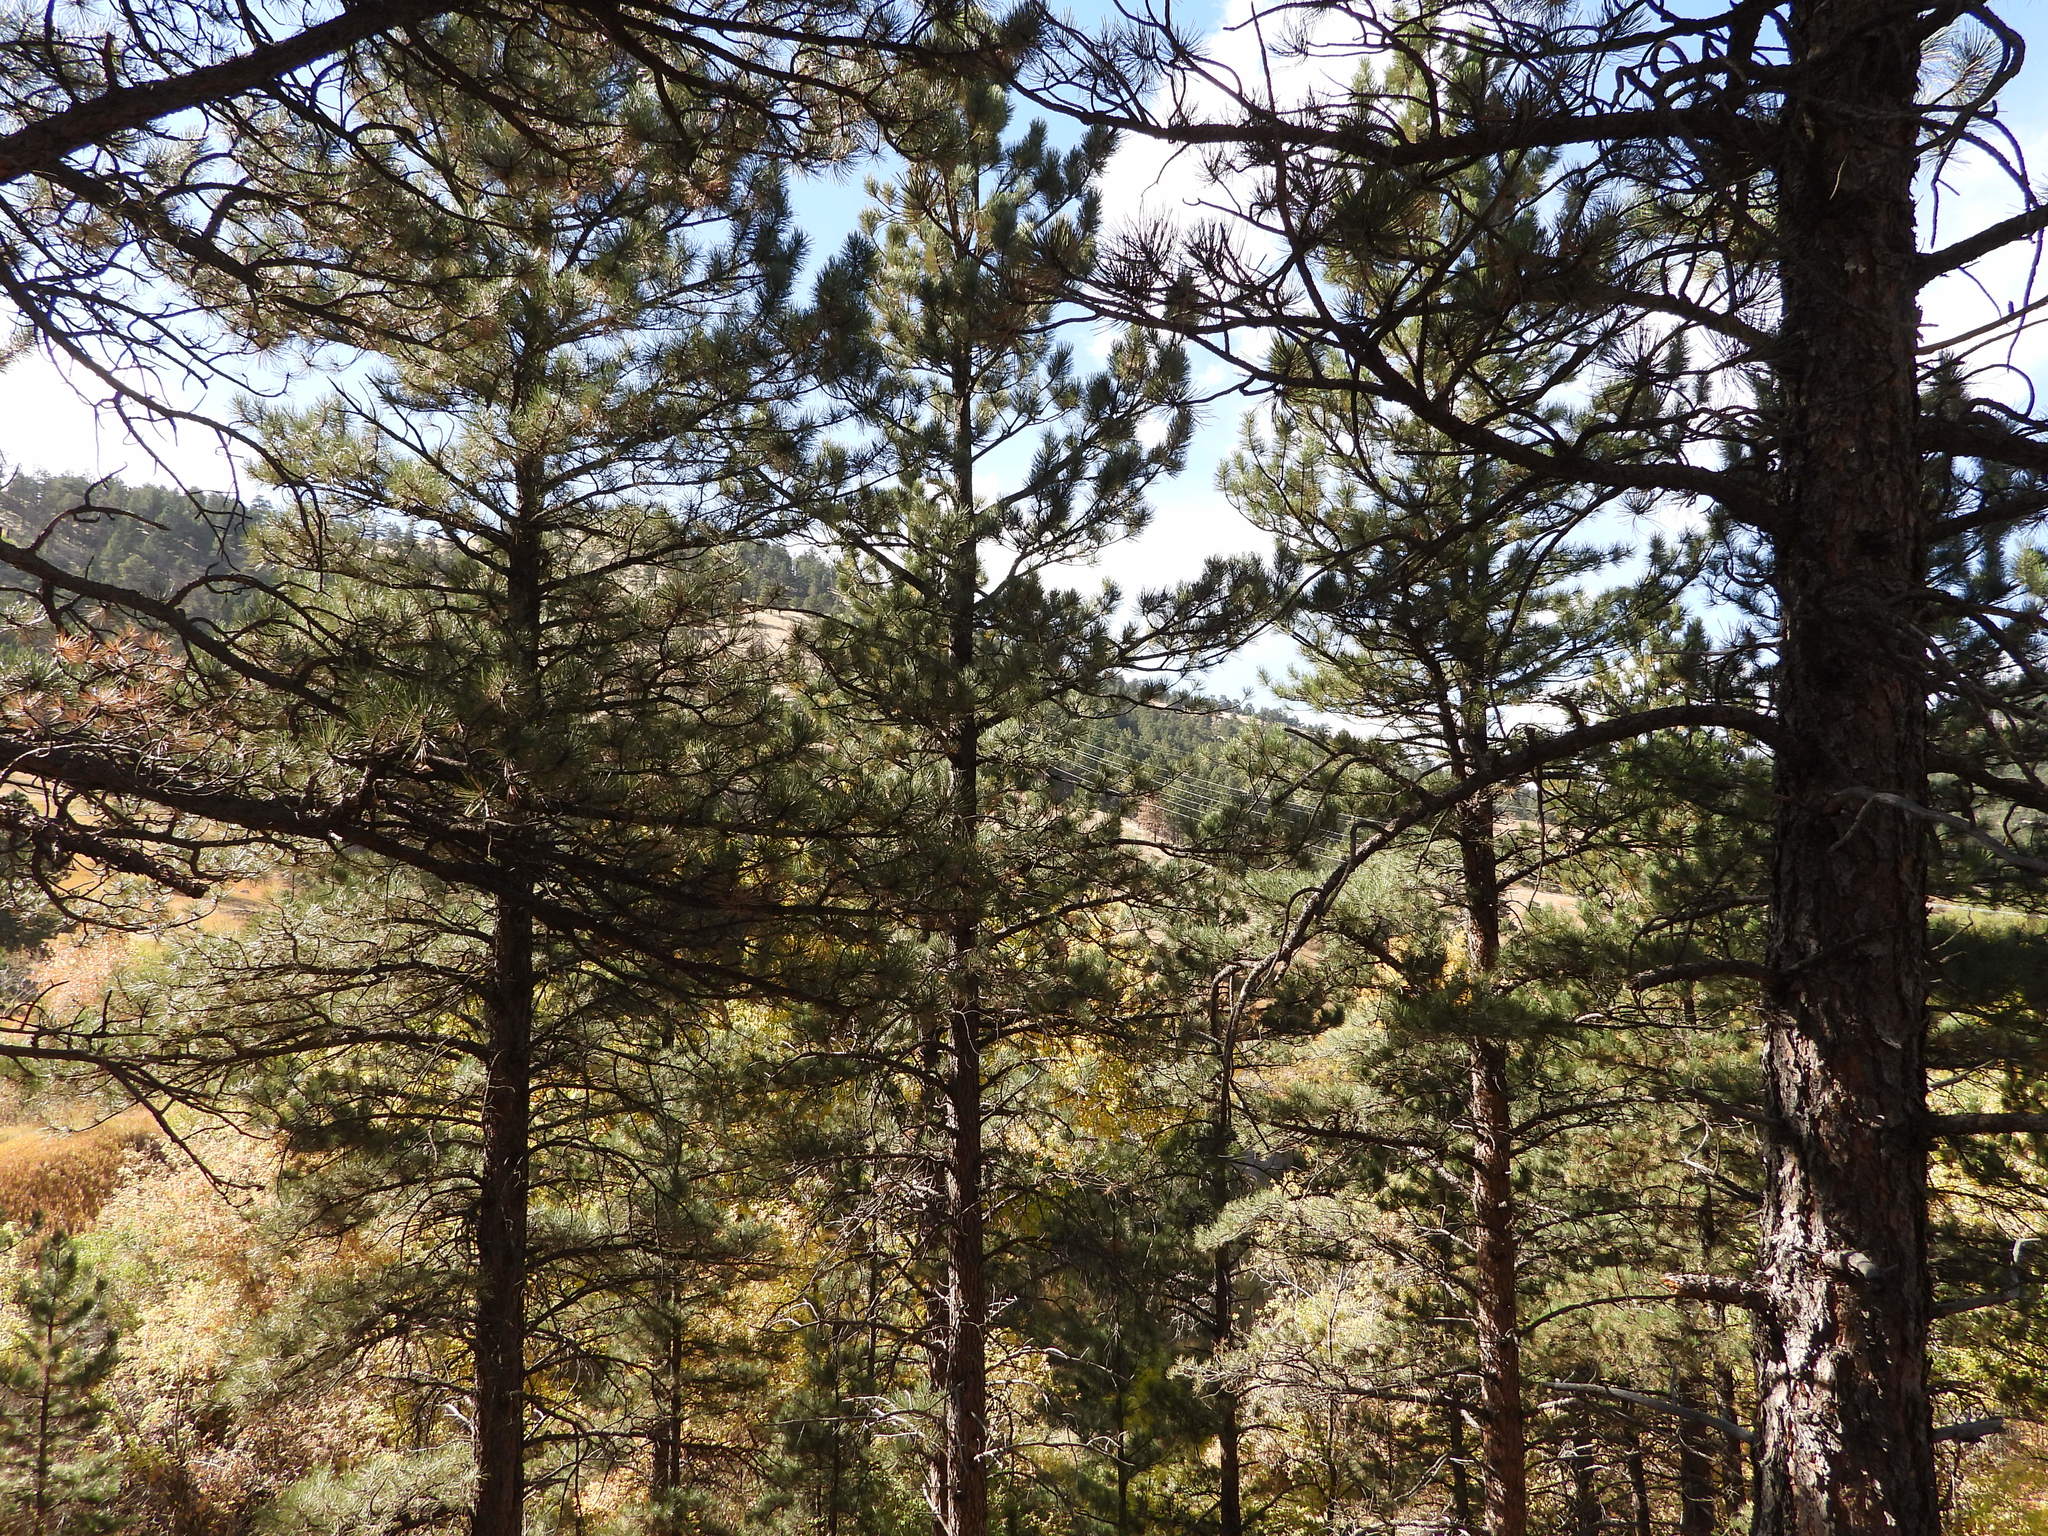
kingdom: Plantae
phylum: Tracheophyta
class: Pinopsida
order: Pinales
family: Pinaceae
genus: Pinus
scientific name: Pinus ponderosa
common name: Western yellow-pine
